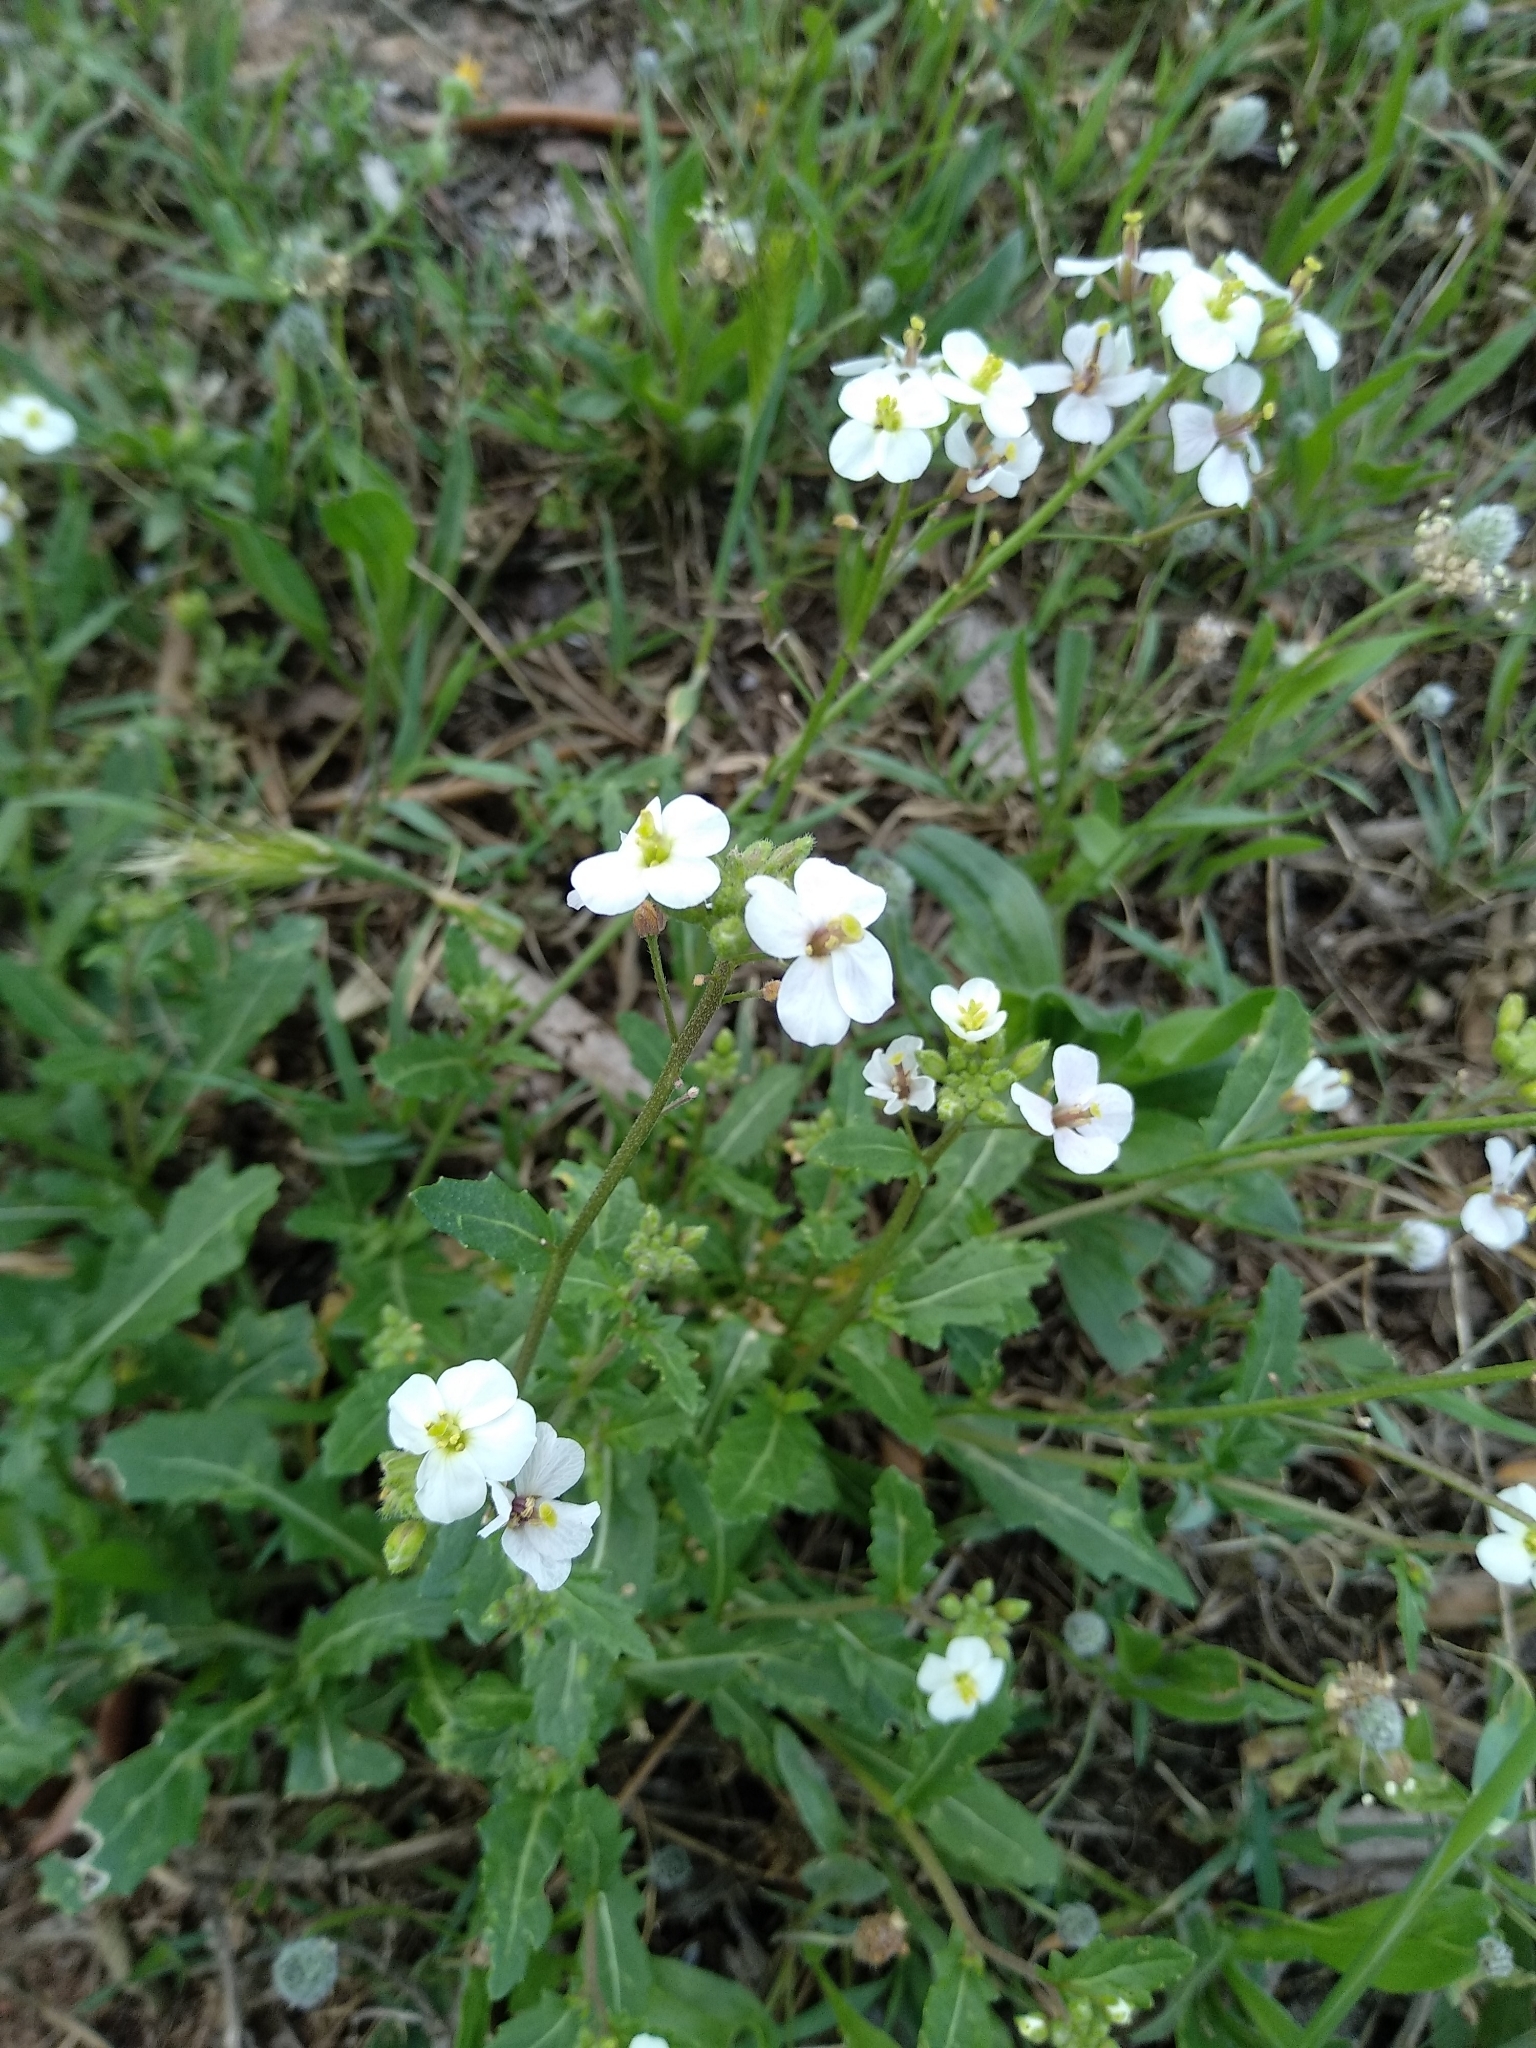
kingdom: Plantae
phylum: Tracheophyta
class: Magnoliopsida
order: Brassicales
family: Brassicaceae
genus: Diplotaxis
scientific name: Diplotaxis erucoides
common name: White rocket
